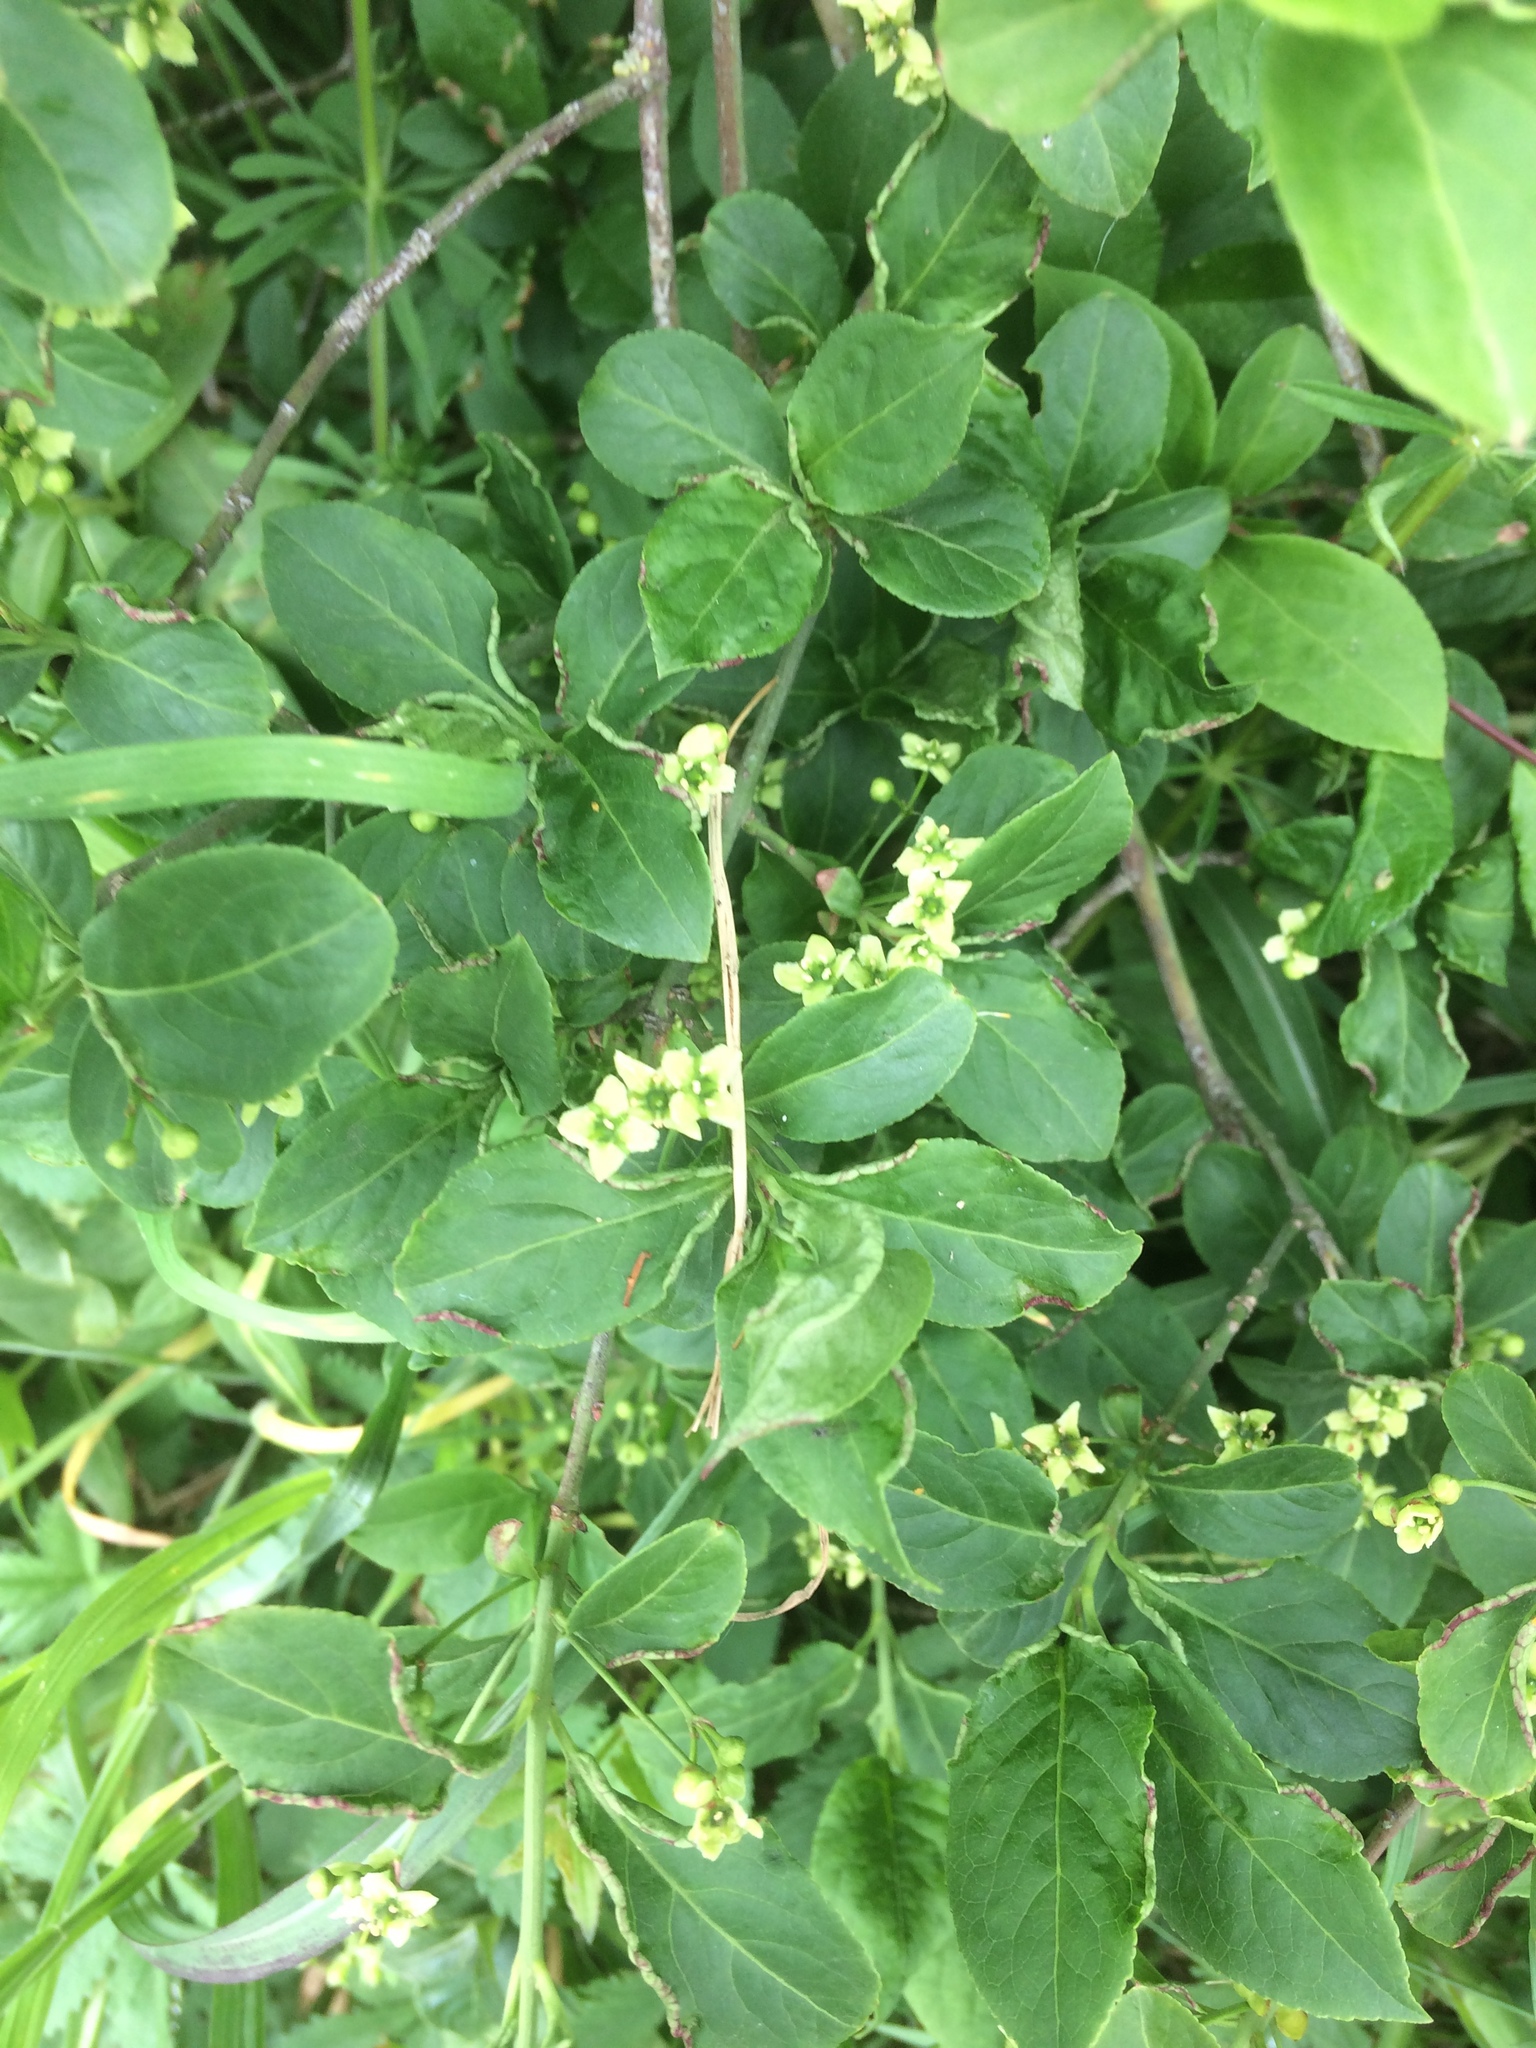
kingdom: Plantae
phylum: Tracheophyta
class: Magnoliopsida
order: Celastrales
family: Celastraceae
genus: Euonymus
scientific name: Euonymus europaeus
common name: Spindle
